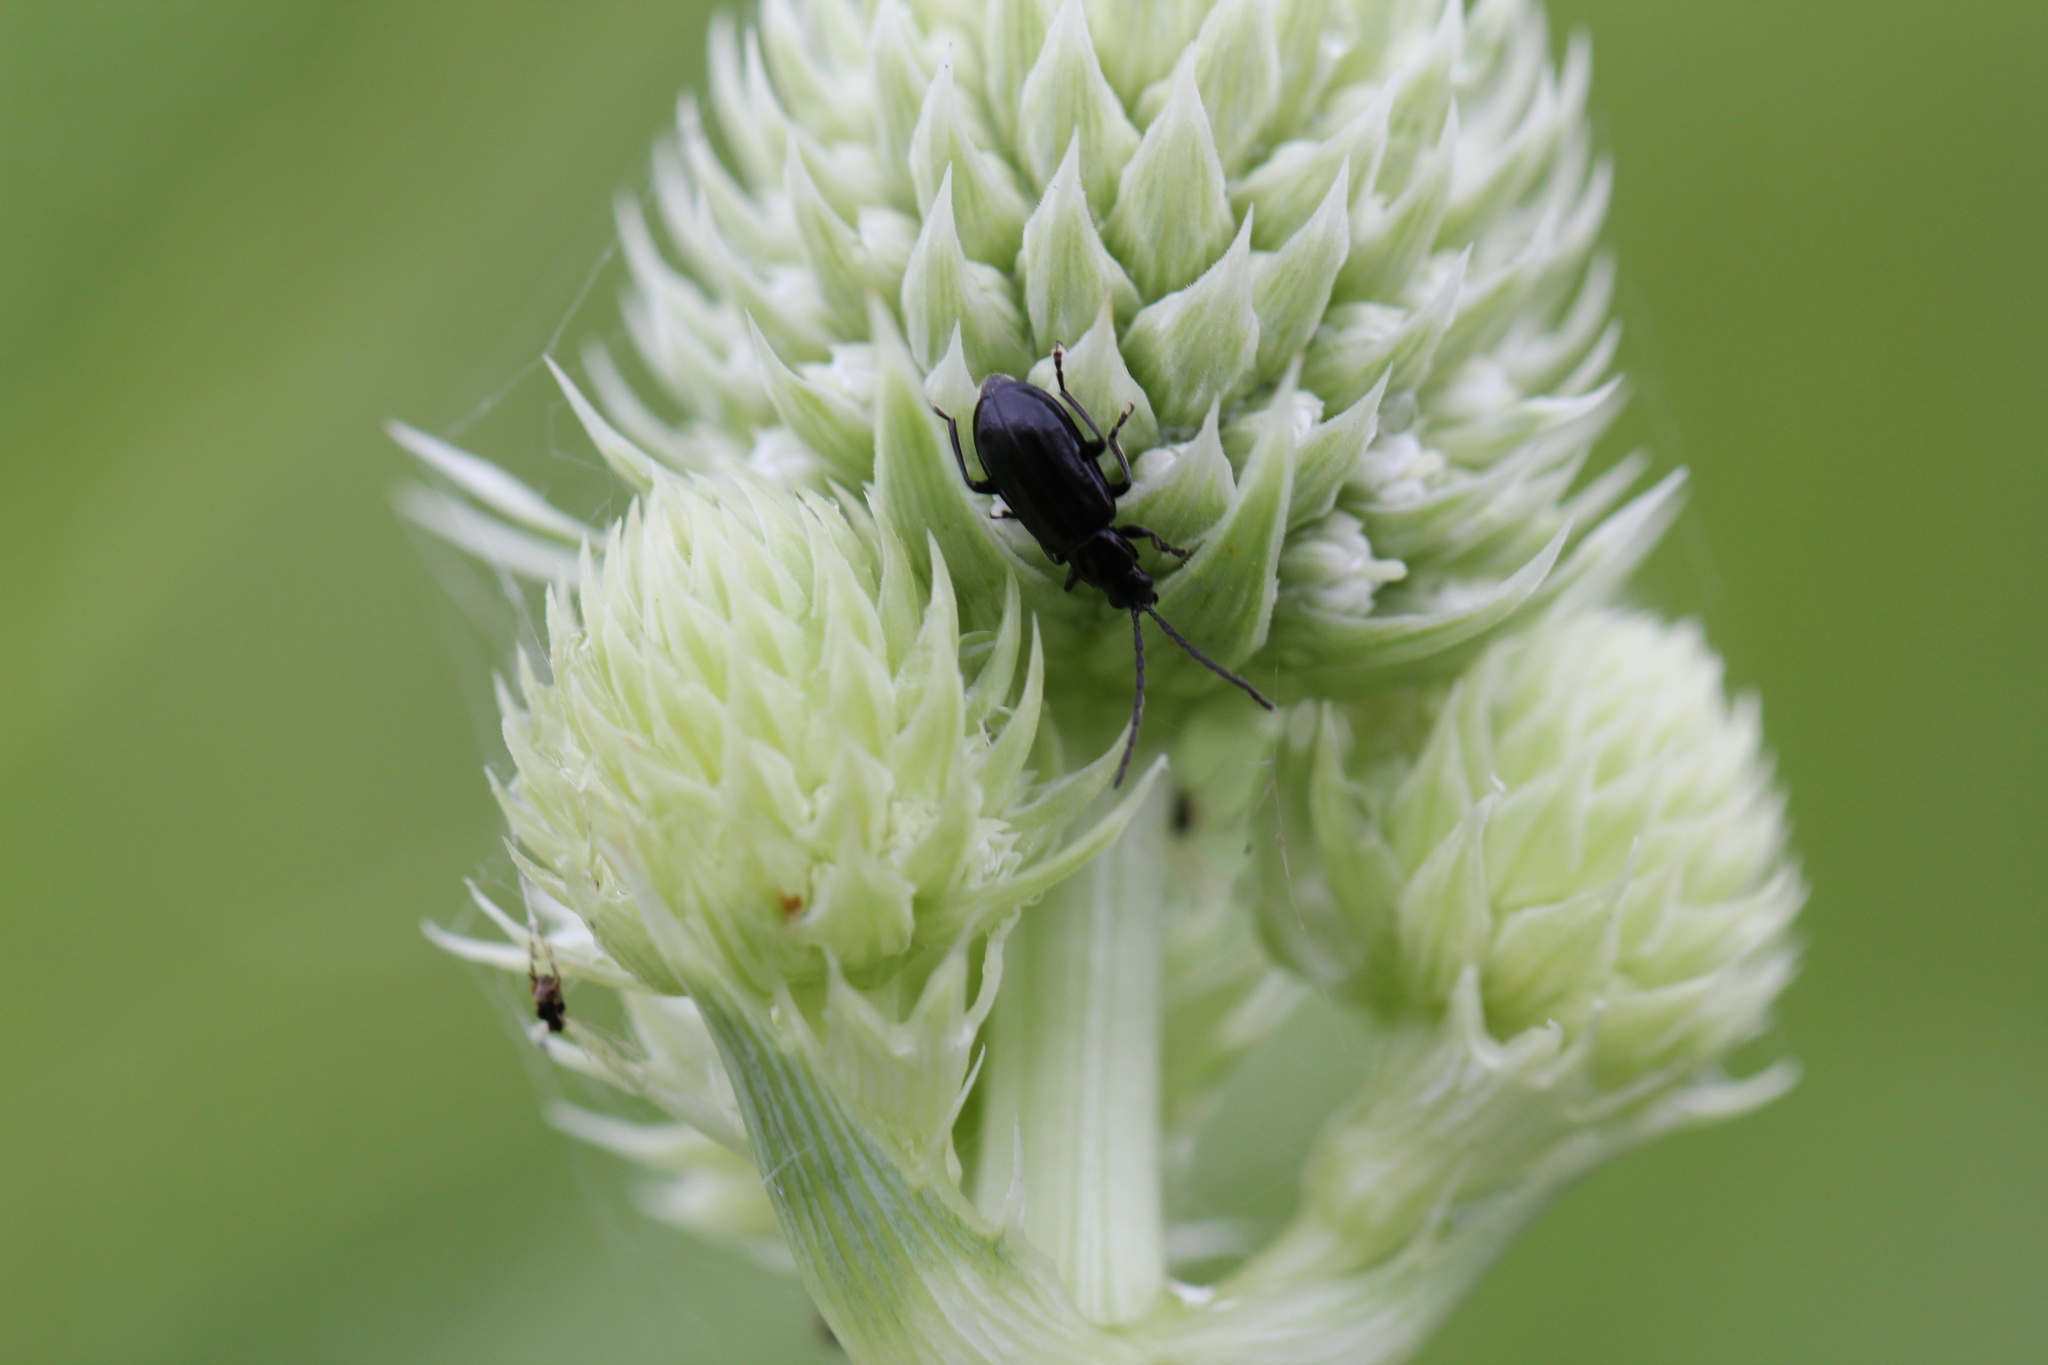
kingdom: Animalia
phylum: Arthropoda
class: Insecta
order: Coleoptera
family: Chrysomelidae
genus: Diabrotica
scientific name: Diabrotica cristata
